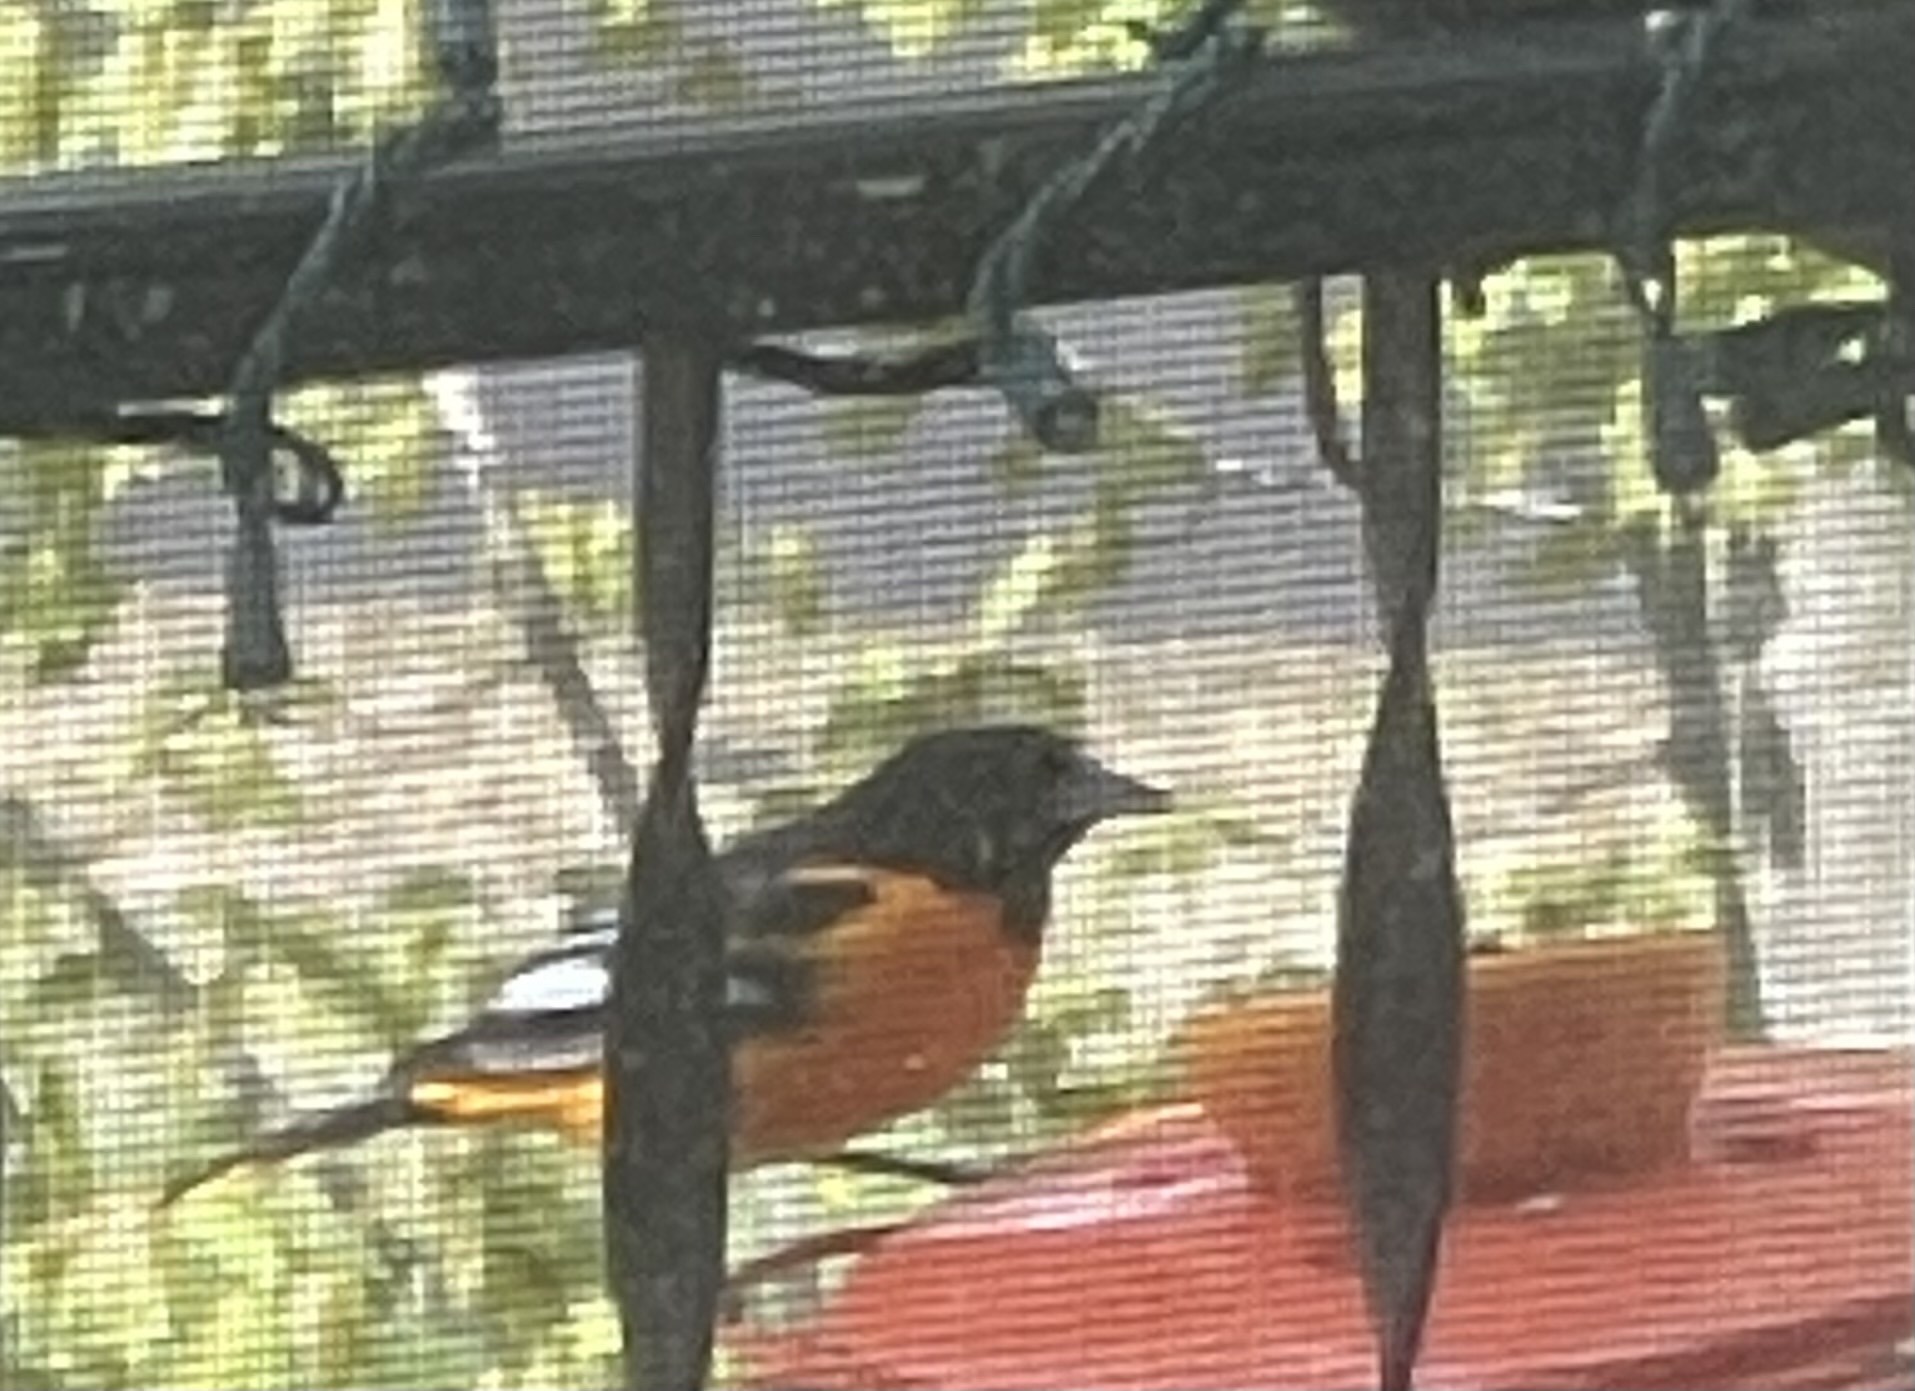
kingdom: Animalia
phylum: Chordata
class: Aves
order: Passeriformes
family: Icteridae
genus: Icterus
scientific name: Icterus galbula
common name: Baltimore oriole
